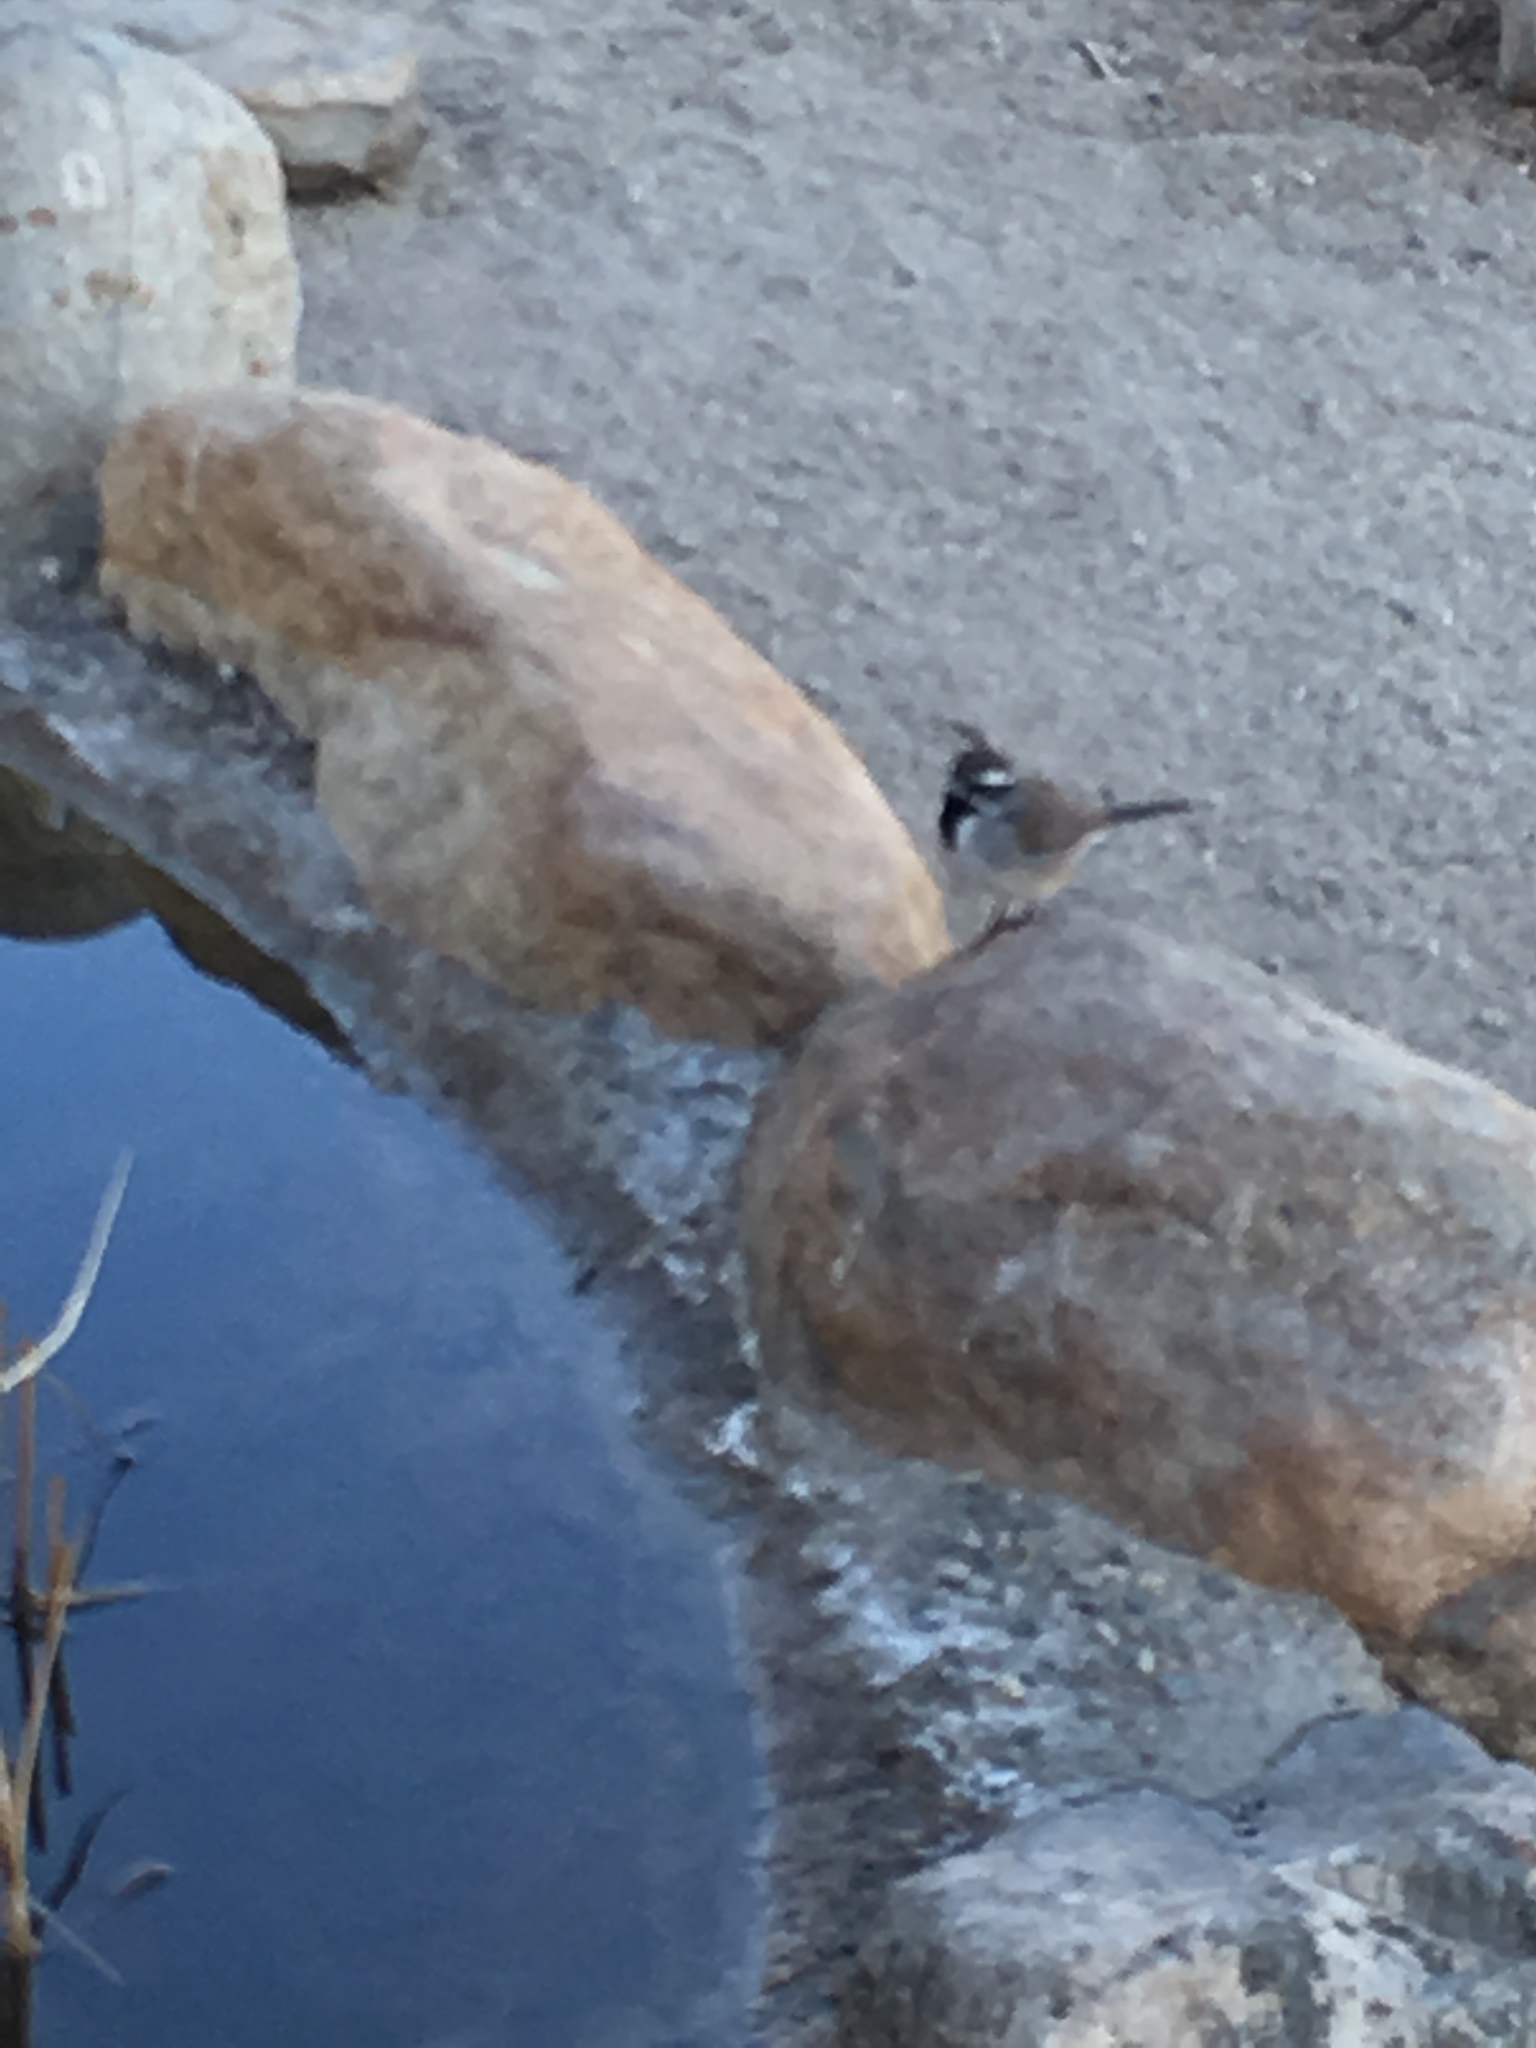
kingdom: Animalia
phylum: Chordata
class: Aves
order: Passeriformes
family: Passerellidae
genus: Amphispiza
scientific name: Amphispiza bilineata
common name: Black-throated sparrow
